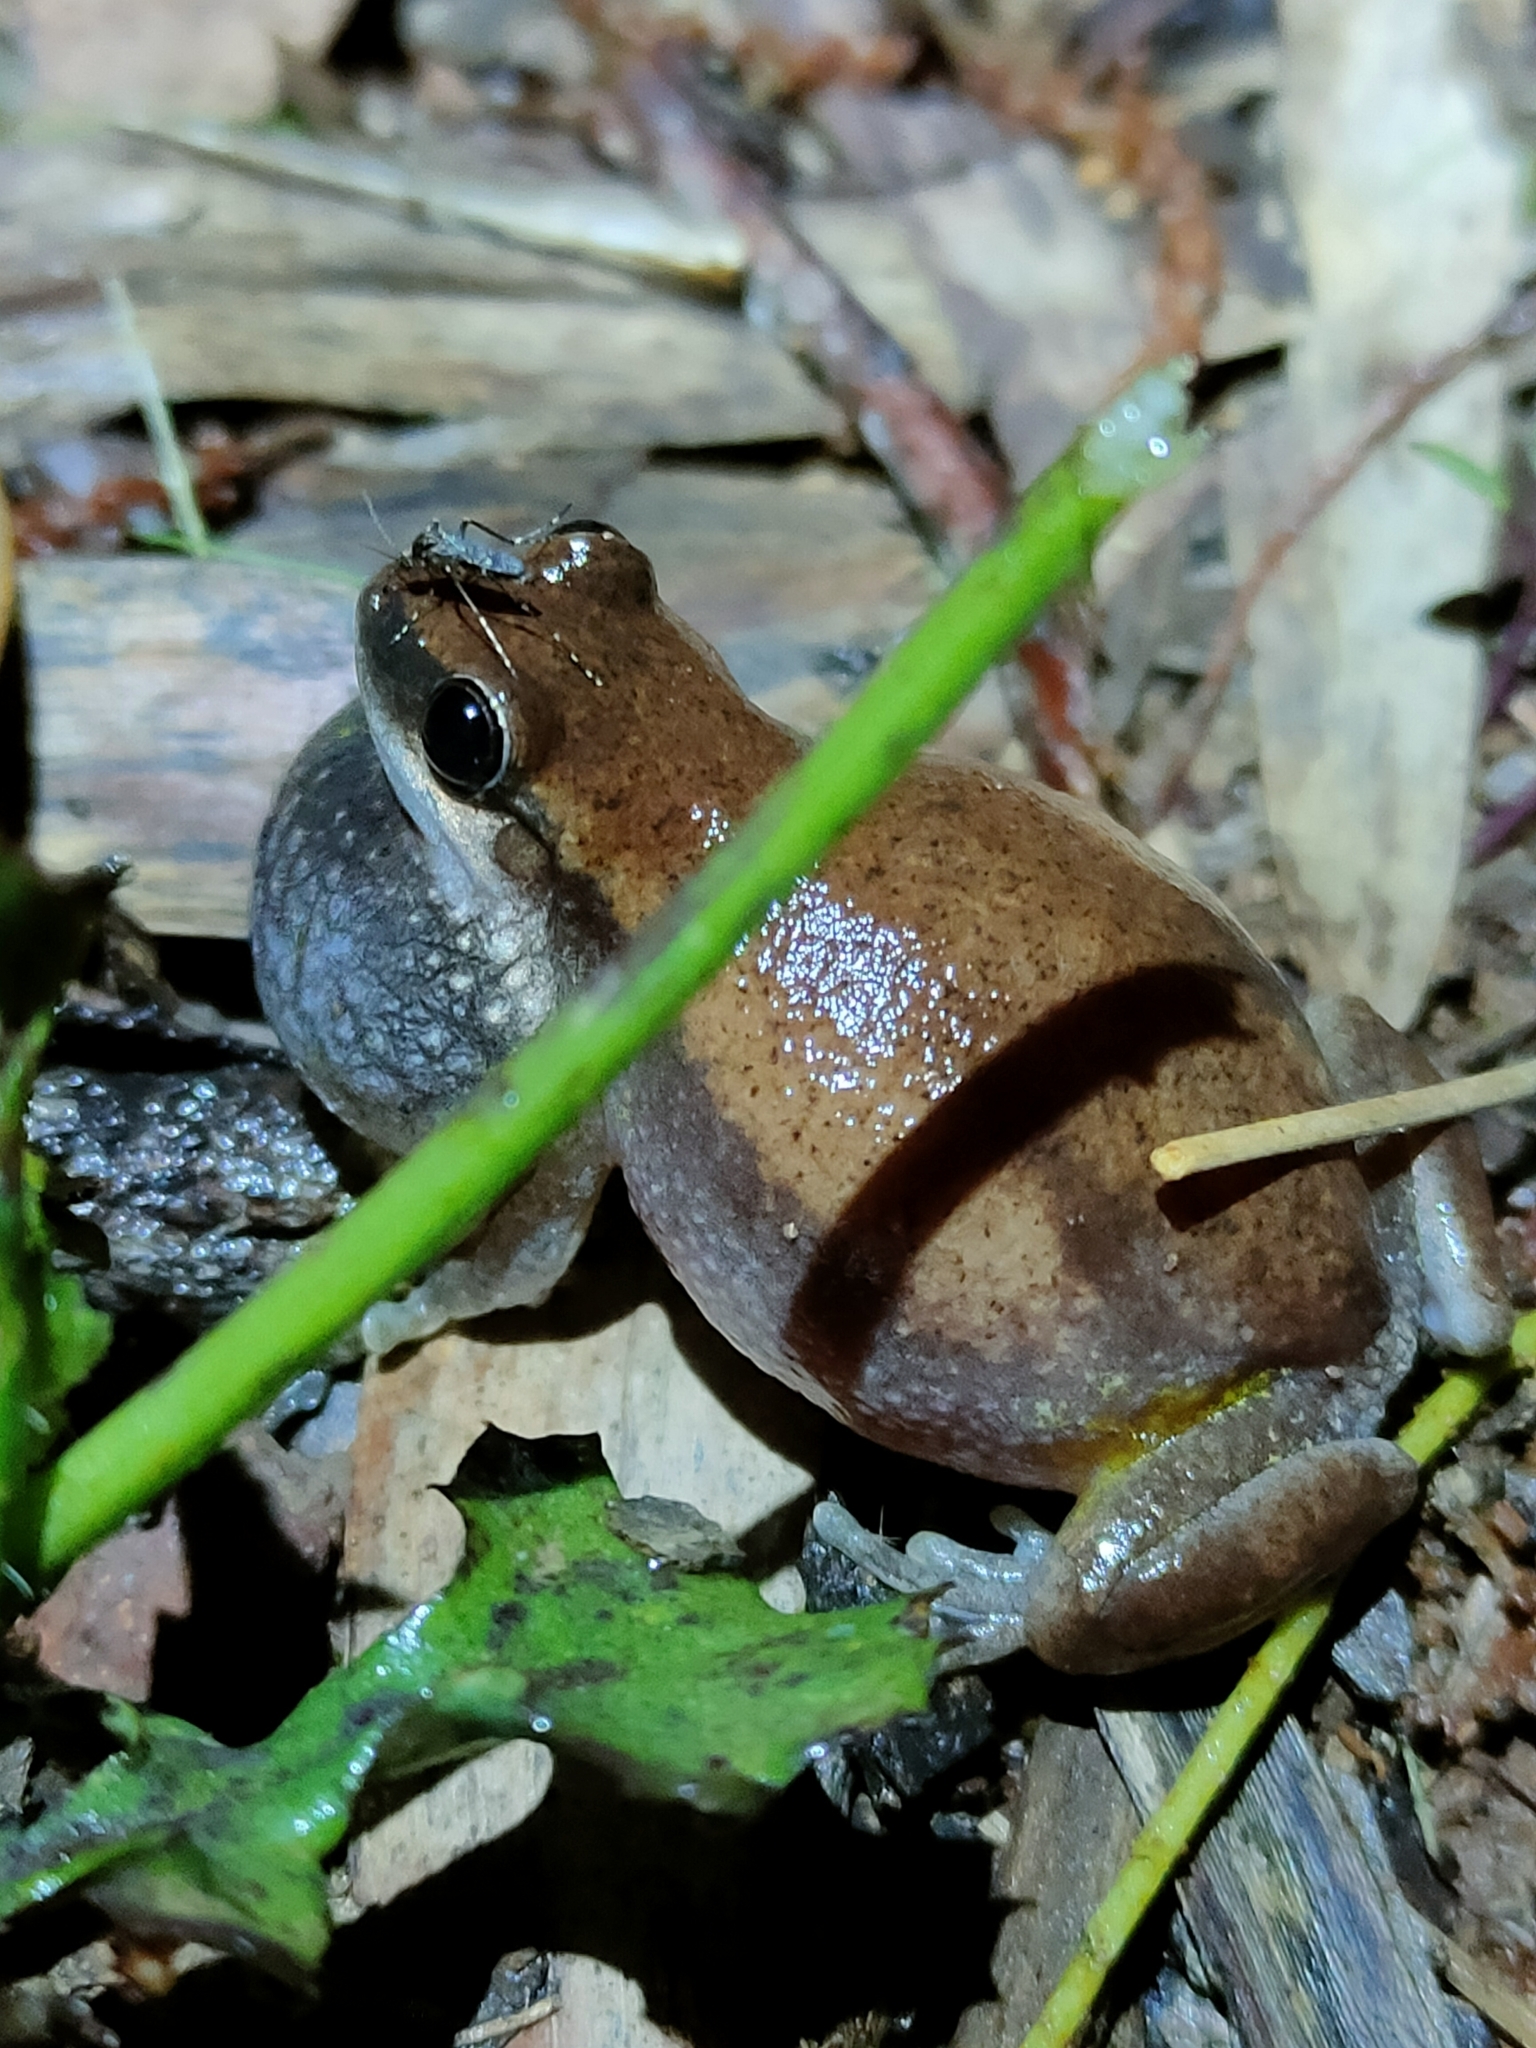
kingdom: Animalia
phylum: Chordata
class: Amphibia
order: Anura
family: Pelodryadidae
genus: Litoria
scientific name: Litoria rubella
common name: Desert tree frog
